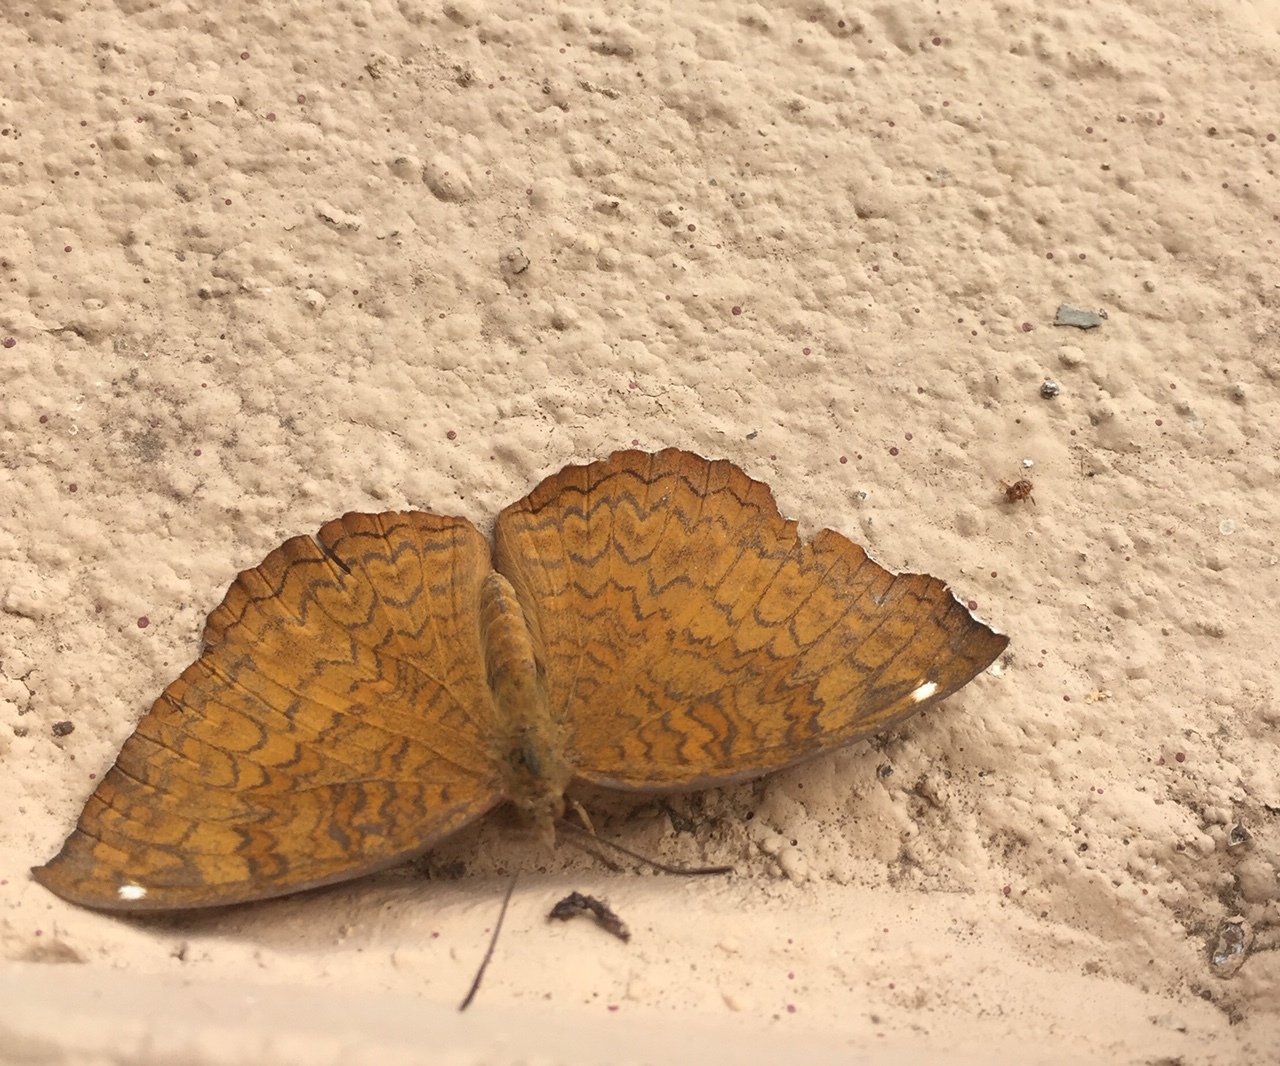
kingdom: Animalia
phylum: Arthropoda
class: Insecta
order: Lepidoptera
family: Nymphalidae
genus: Ariadne
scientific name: Ariadne merione
